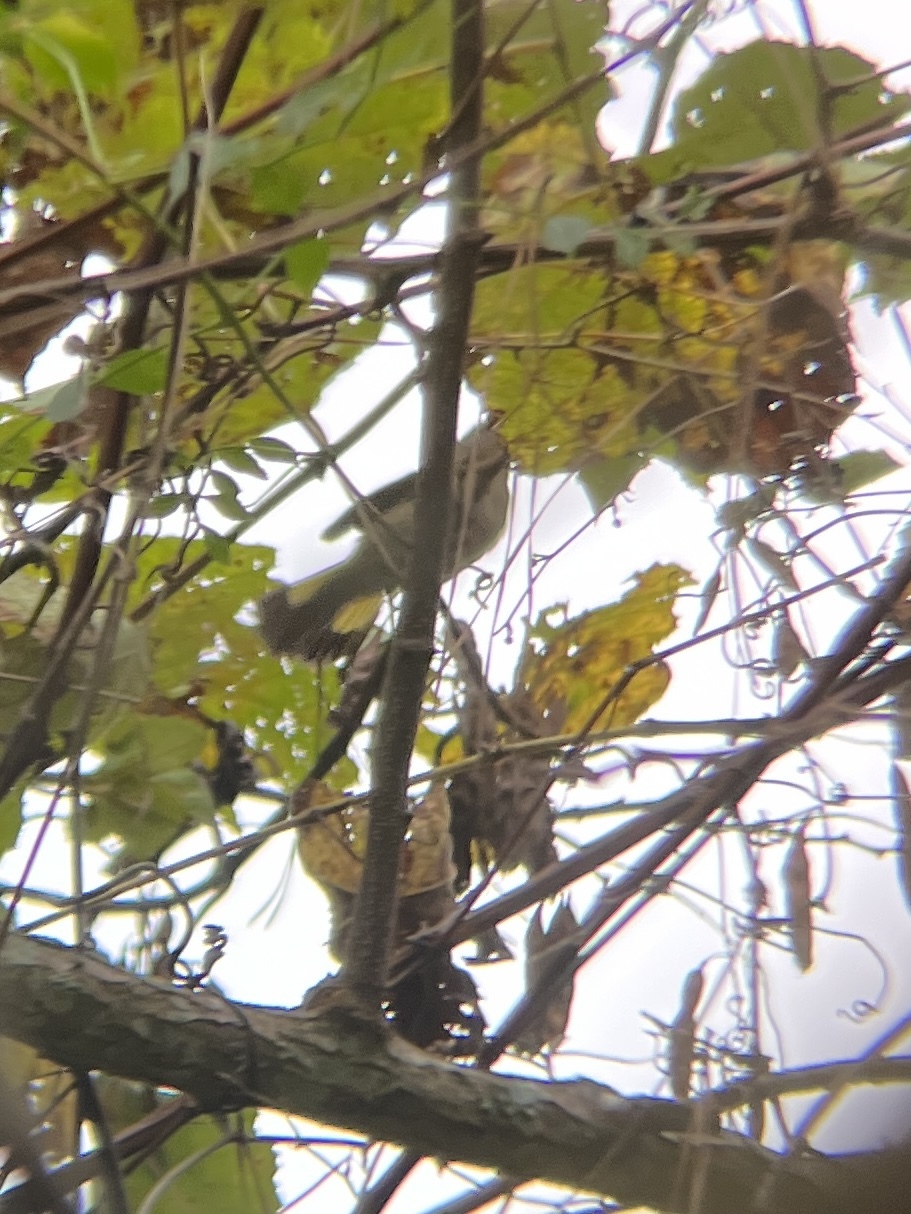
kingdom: Animalia
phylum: Chordata
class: Aves
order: Passeriformes
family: Parulidae
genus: Setophaga
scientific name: Setophaga ruticilla
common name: American redstart
